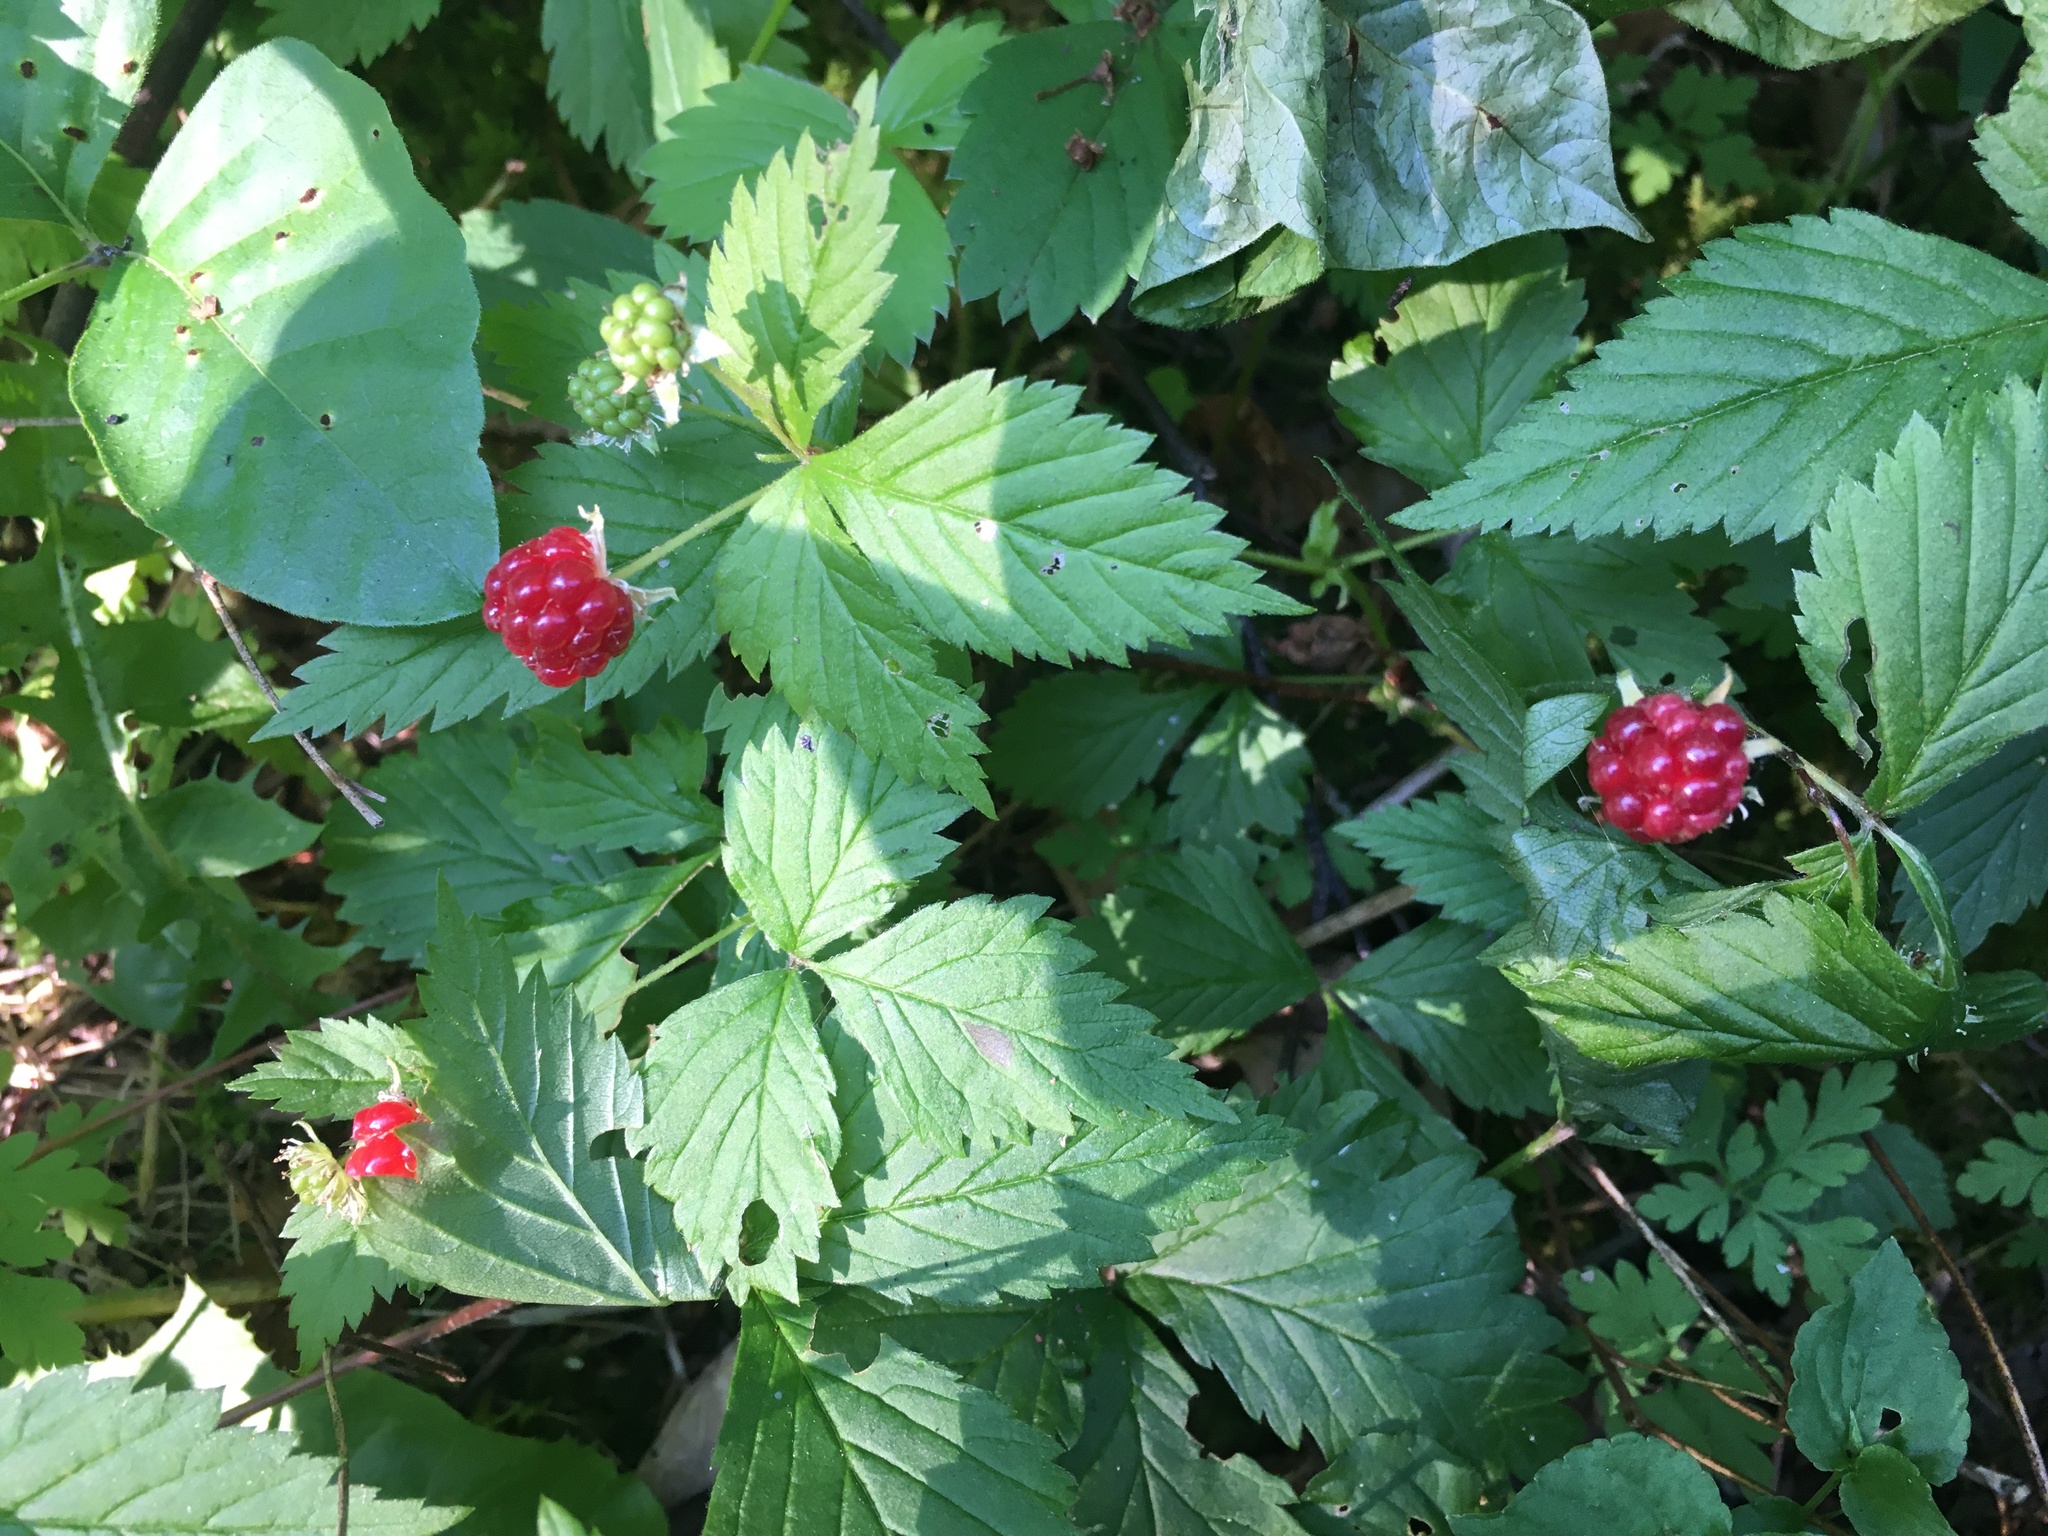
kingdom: Plantae
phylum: Tracheophyta
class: Magnoliopsida
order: Rosales
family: Rosaceae
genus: Rubus
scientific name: Rubus pubescens
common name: Dwarf raspberry
